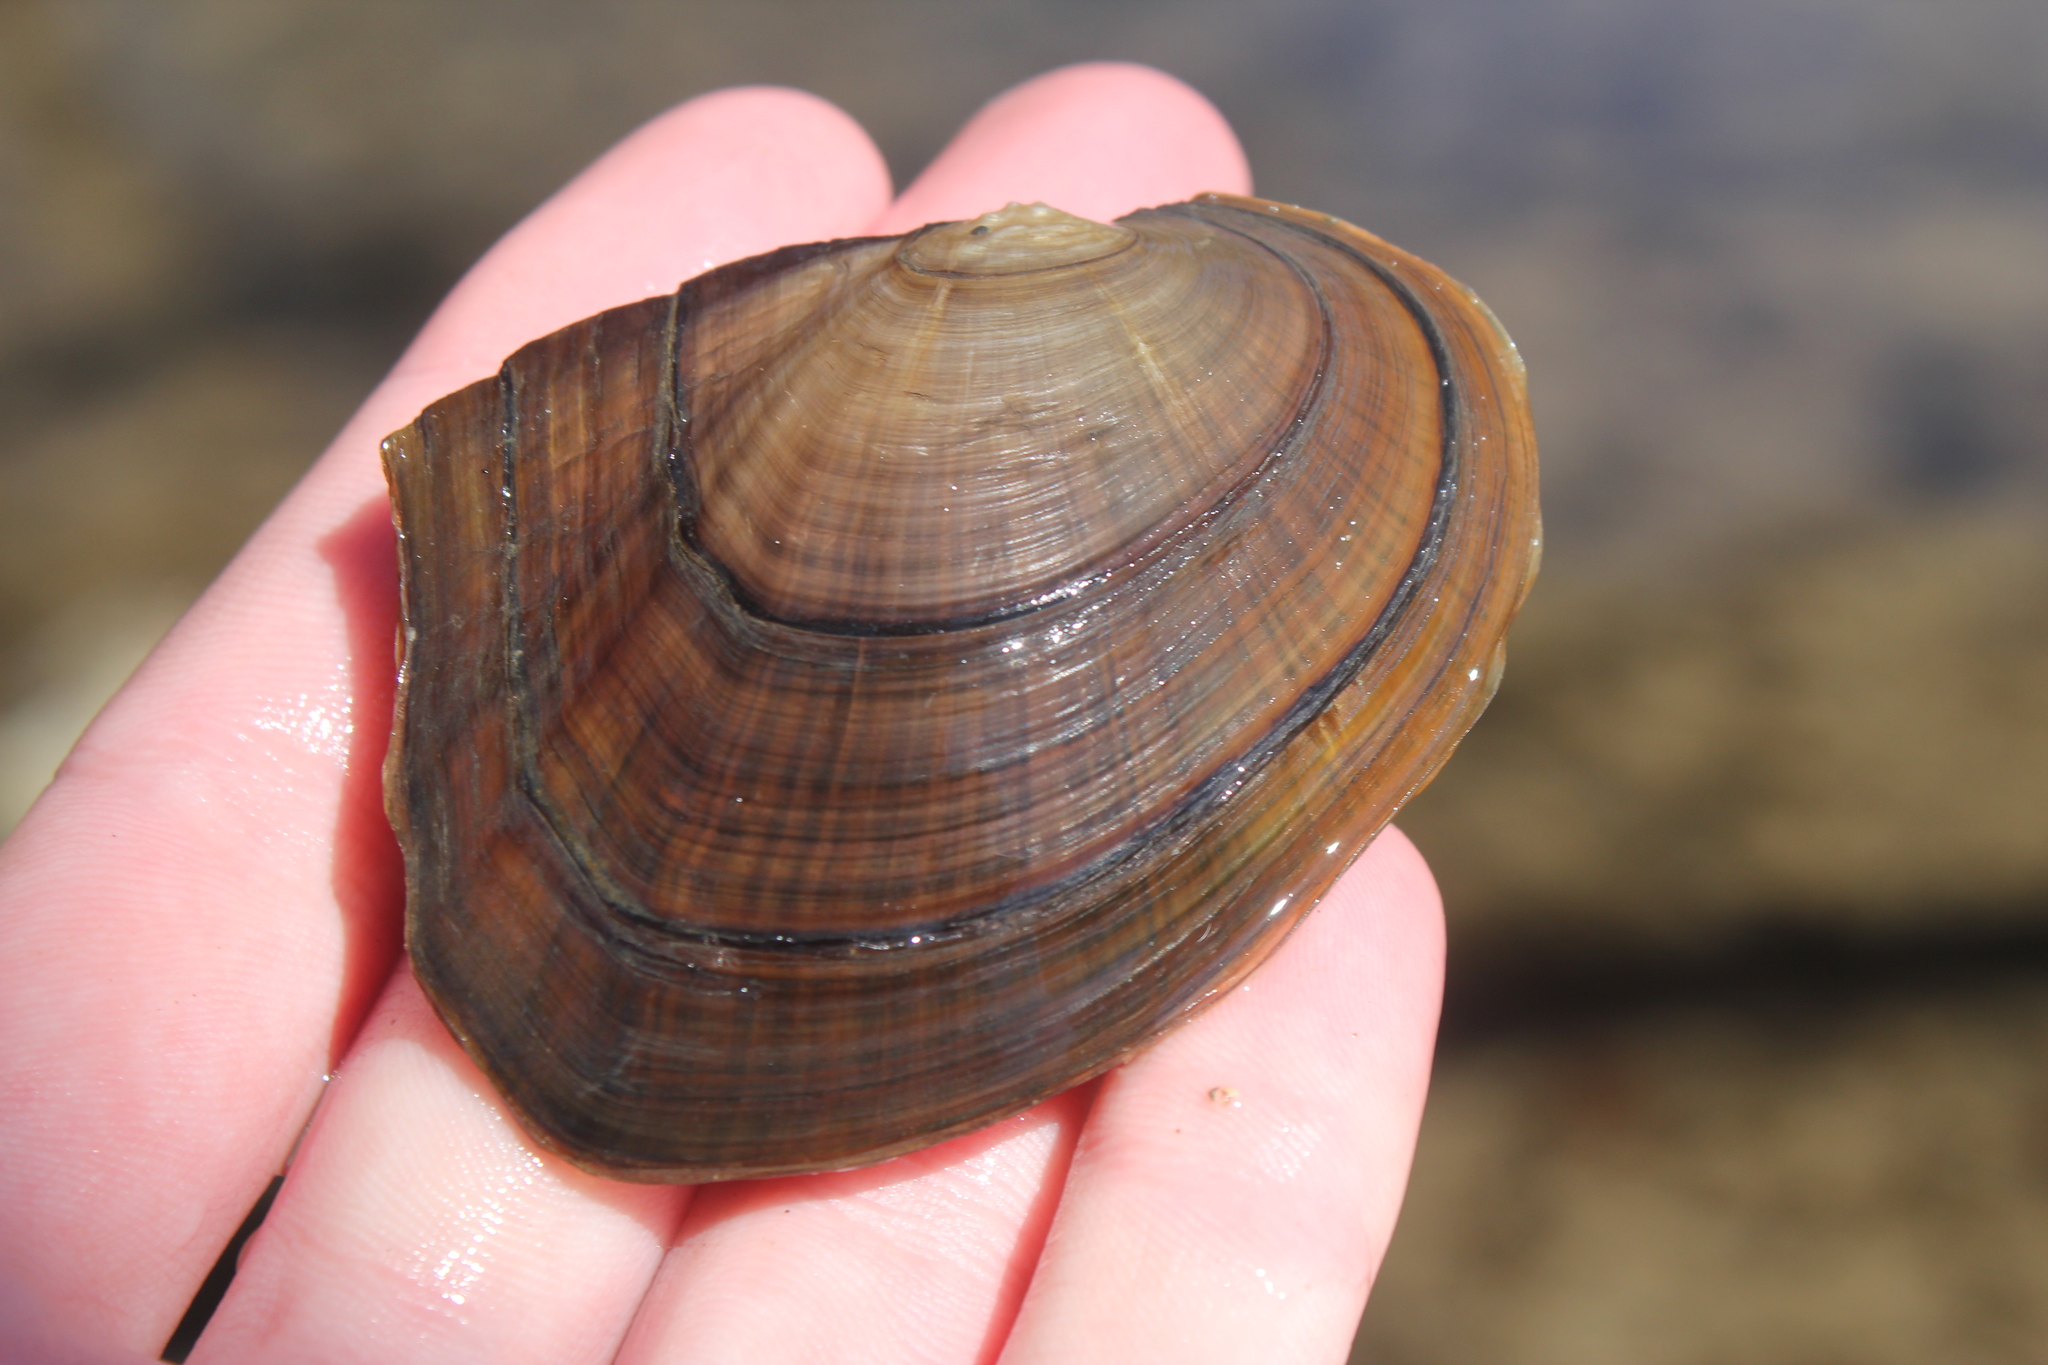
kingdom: Animalia
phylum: Mollusca
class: Bivalvia
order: Unionida
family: Unionidae
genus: Lasmigona
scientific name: Lasmigona complanata
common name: White heelsplitter
